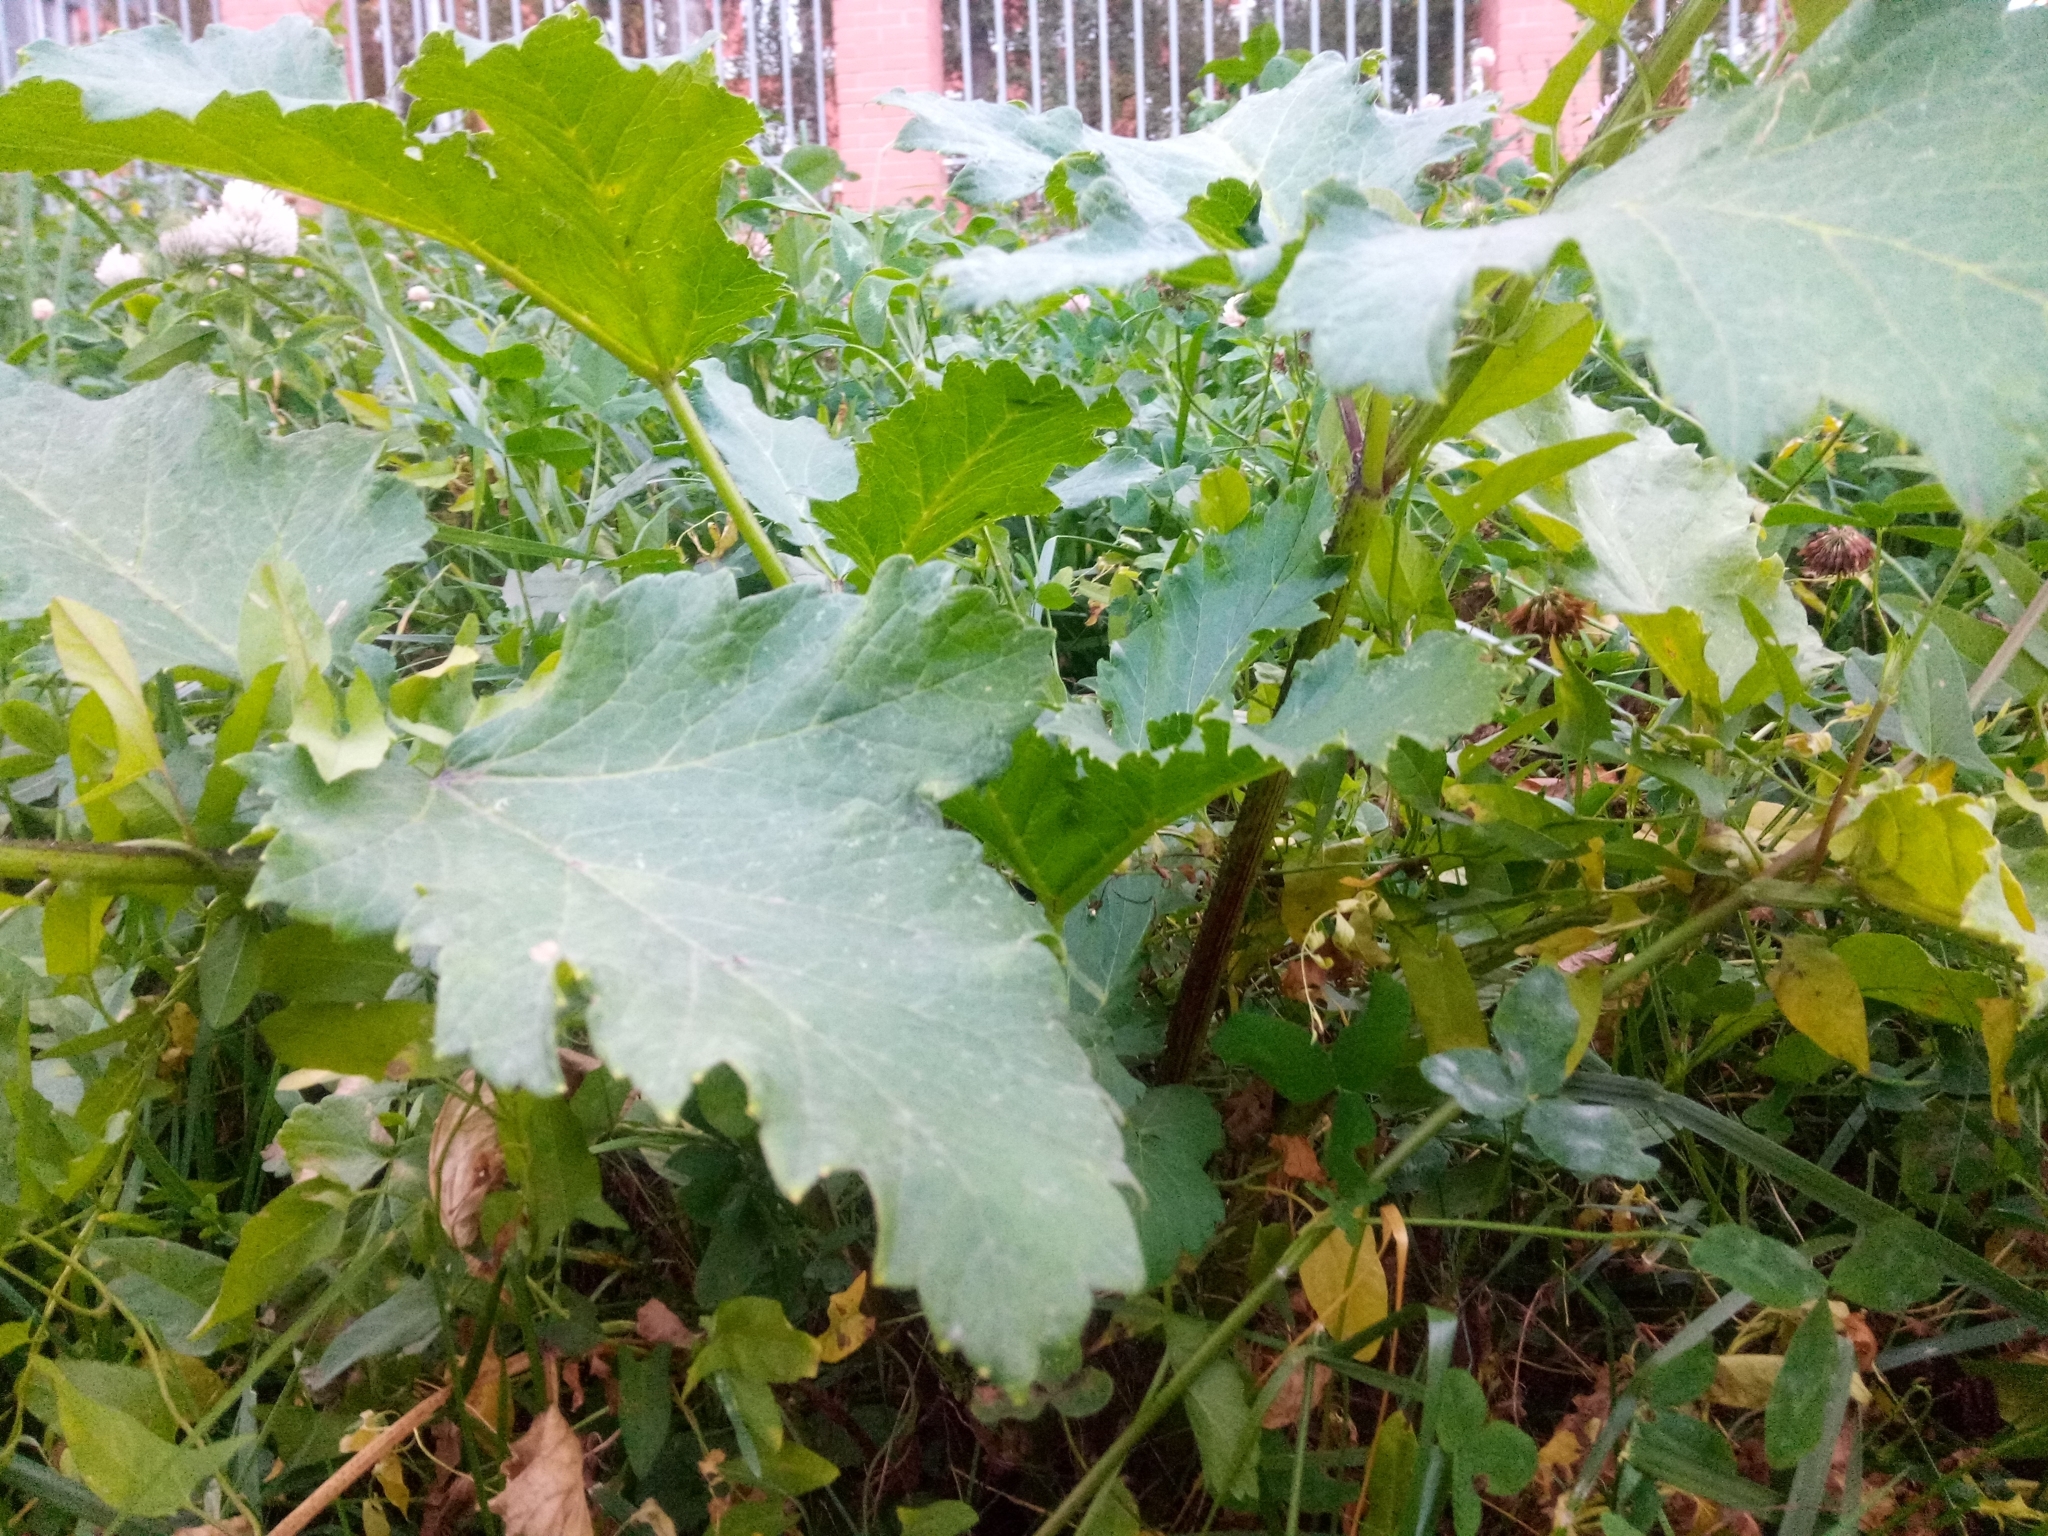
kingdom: Plantae
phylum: Tracheophyta
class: Magnoliopsida
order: Apiales
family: Apiaceae
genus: Heracleum
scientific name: Heracleum sosnowskyi
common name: Sosnowsky's hogweed
